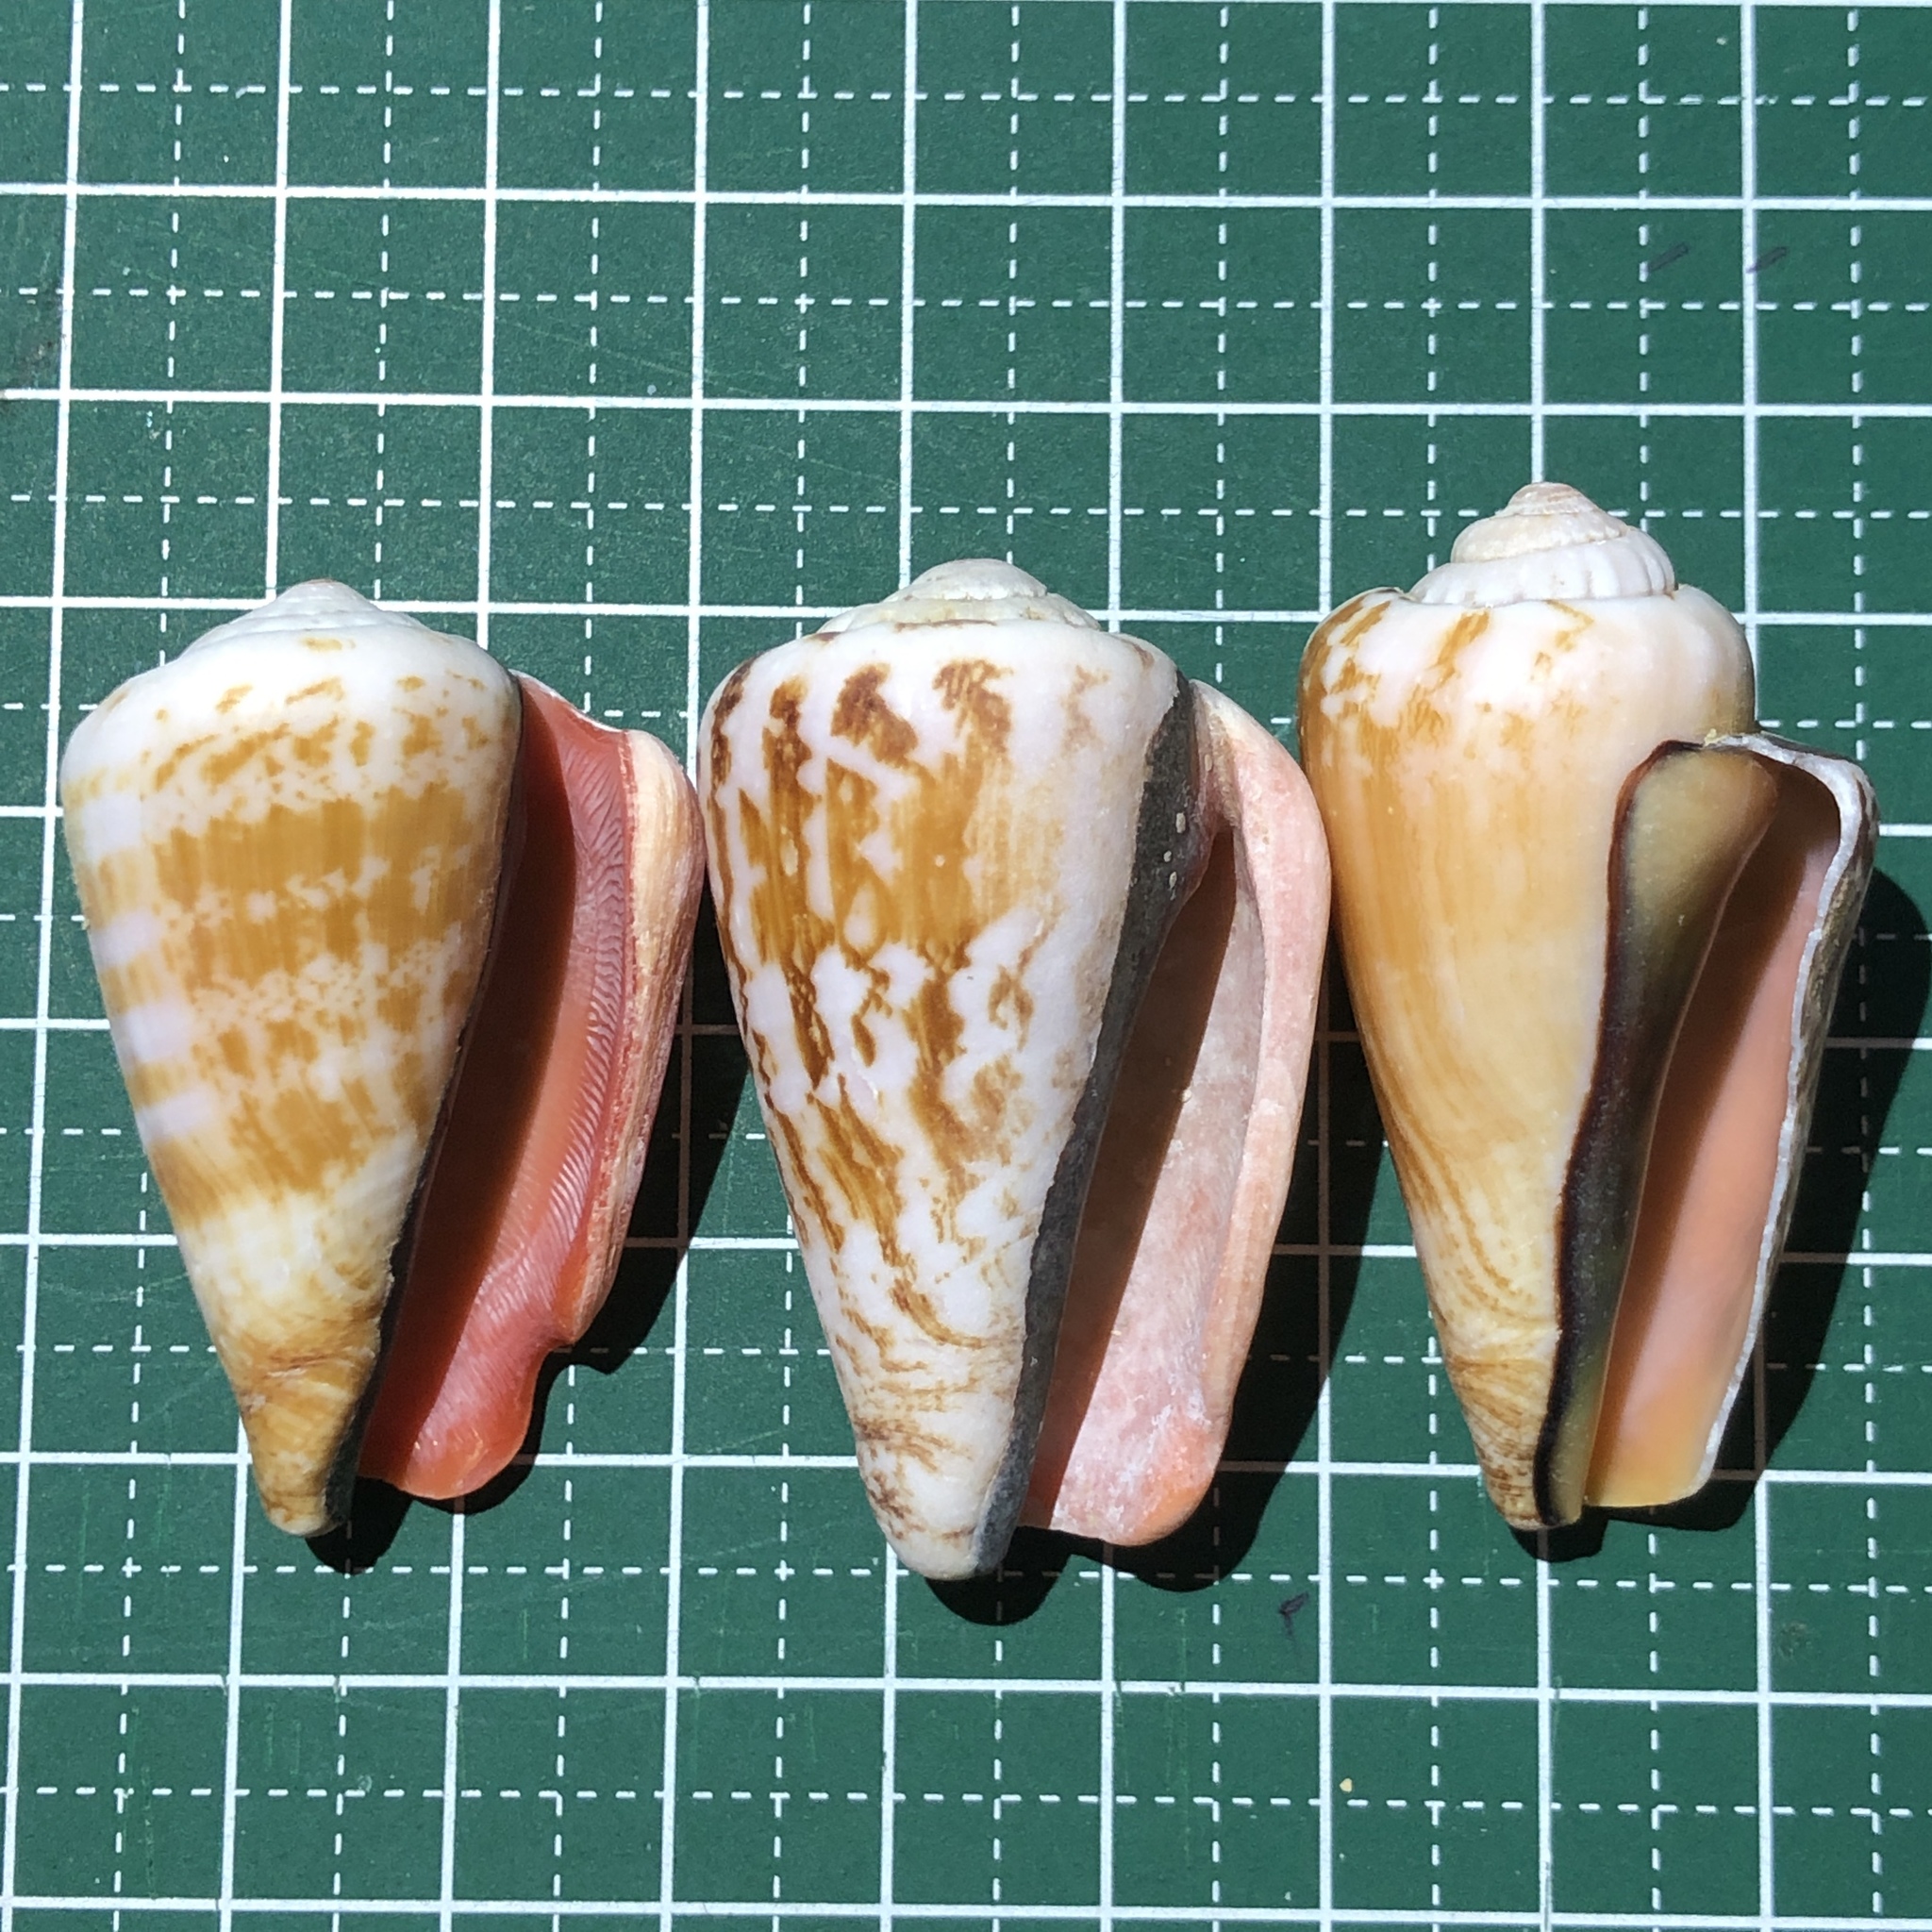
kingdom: Animalia
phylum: Mollusca
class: Gastropoda
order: Littorinimorpha
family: Strombidae
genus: Conomurex
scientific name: Conomurex luhuanus
